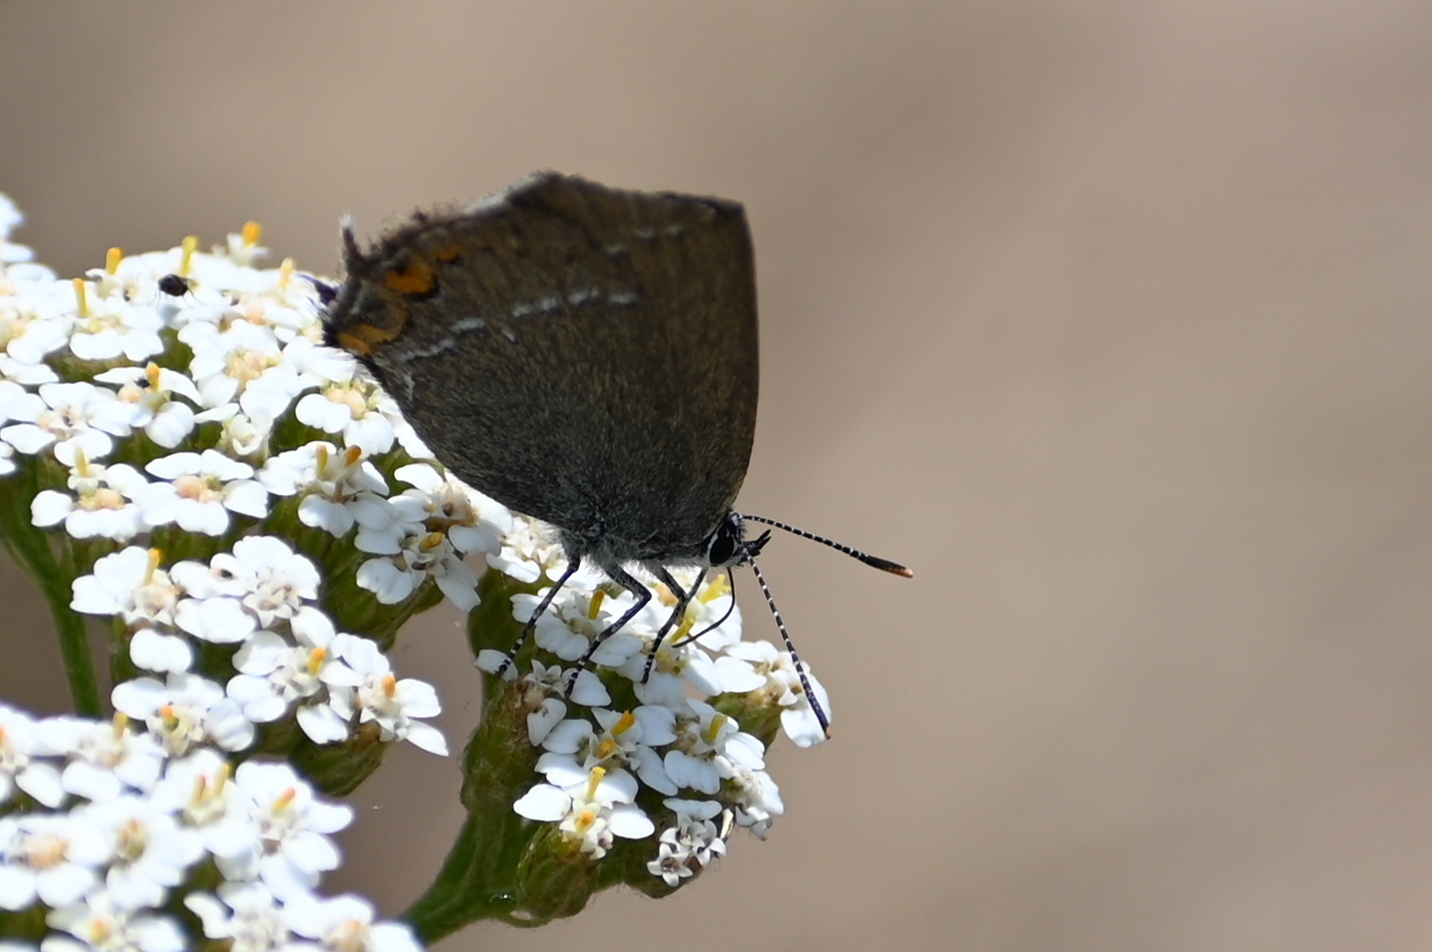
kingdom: Animalia
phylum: Arthropoda
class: Insecta
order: Lepidoptera
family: Lycaenidae
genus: Strymon
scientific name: Strymon acaciae
